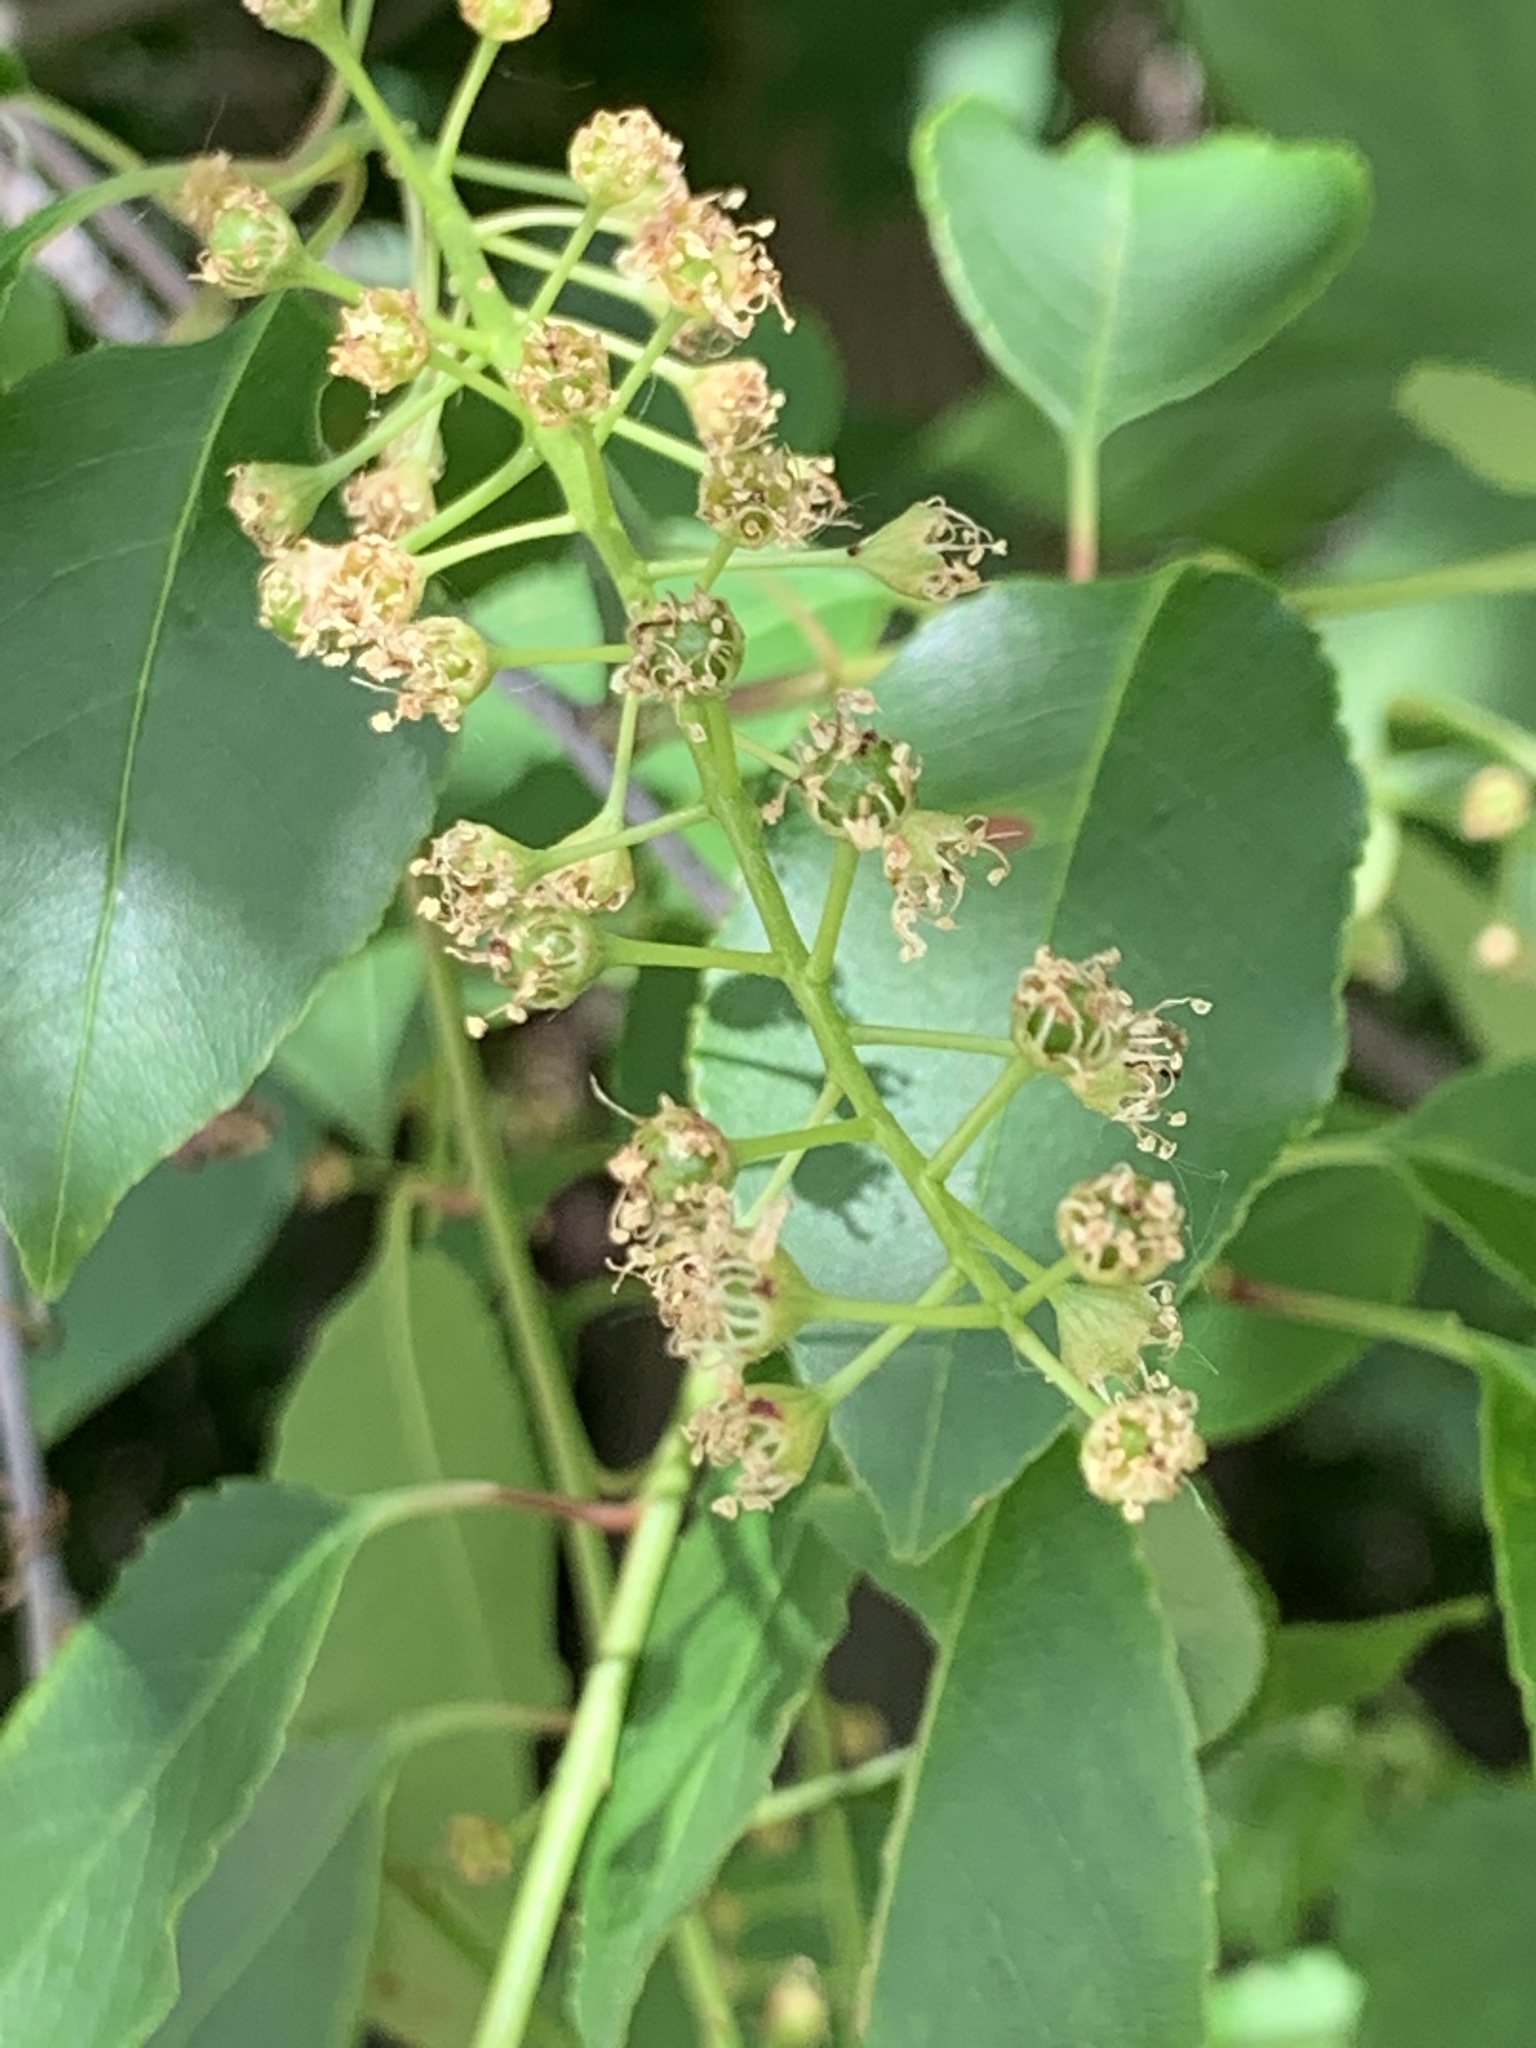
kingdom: Plantae
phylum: Tracheophyta
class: Magnoliopsida
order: Rosales
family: Rosaceae
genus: Prunus
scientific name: Prunus serotina
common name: Black cherry
